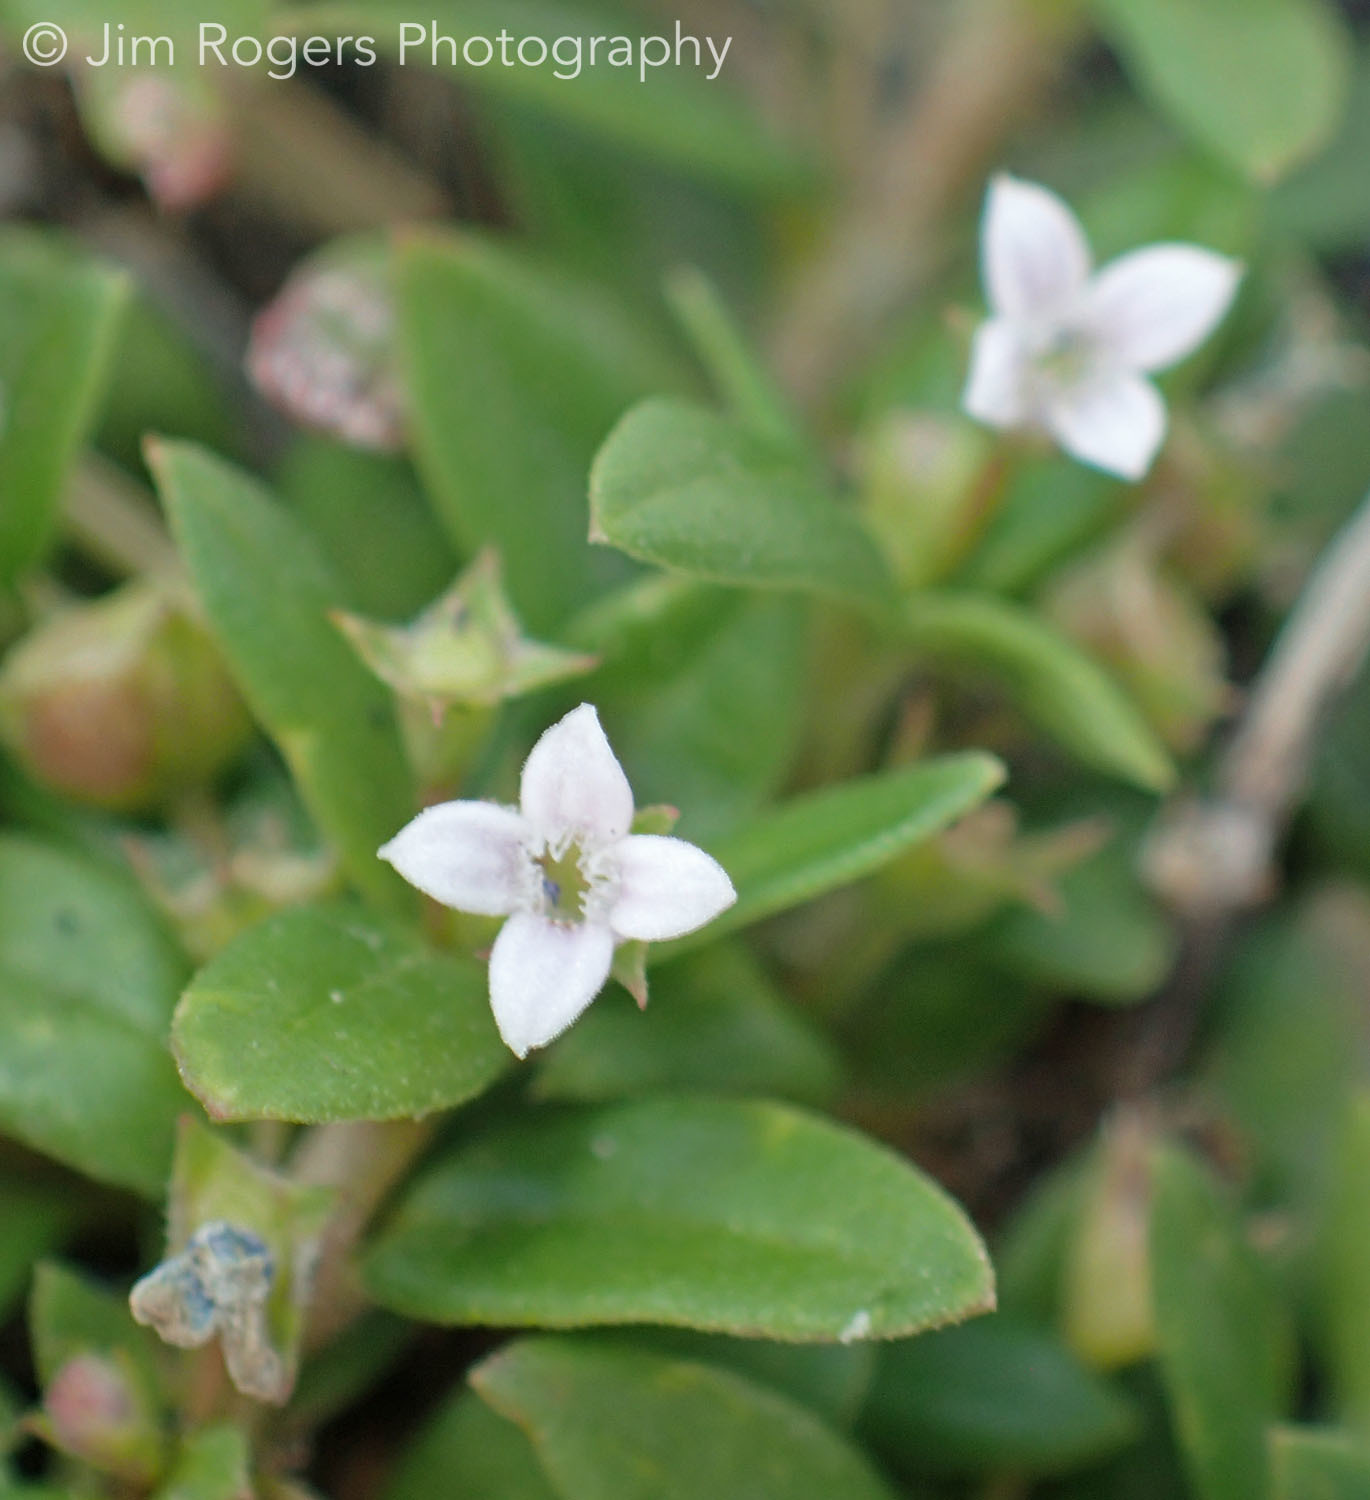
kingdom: Plantae
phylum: Tracheophyta
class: Magnoliopsida
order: Gentianales
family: Rubiaceae
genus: Oldenlandia
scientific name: Oldenlandia corymbosa
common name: Flat-top mille graines
